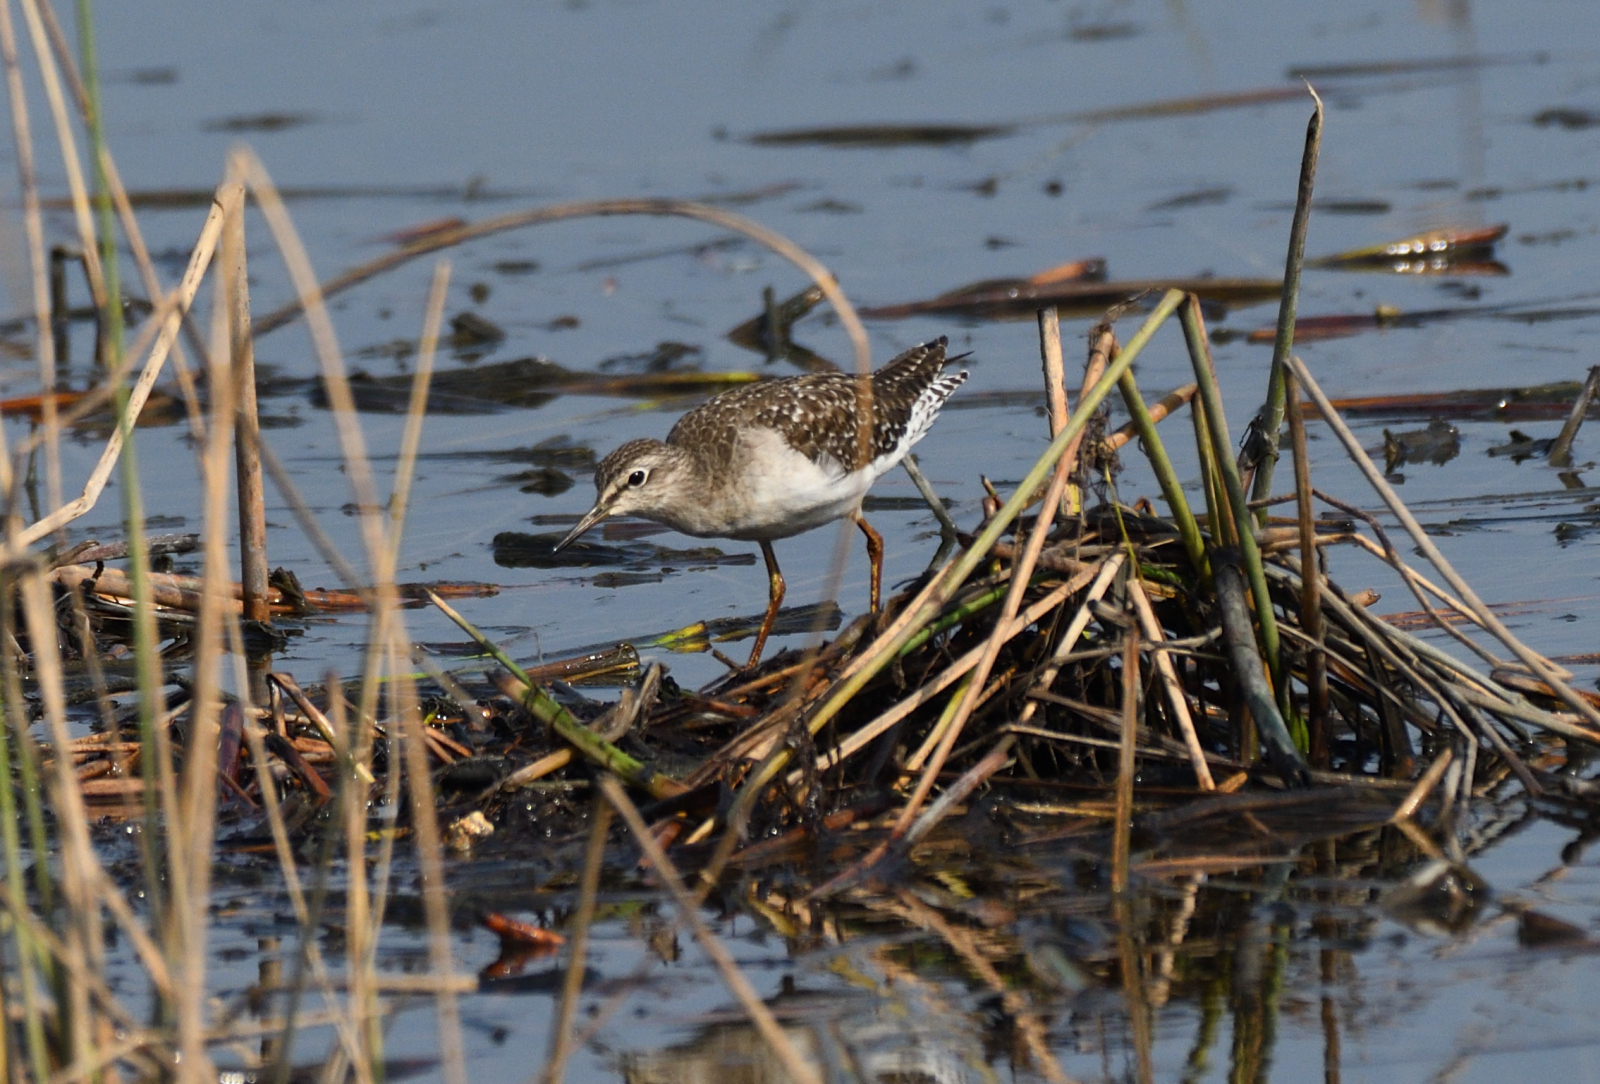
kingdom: Animalia
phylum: Chordata
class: Aves
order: Charadriiformes
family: Scolopacidae
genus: Tringa
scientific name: Tringa glareola
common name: Wood sandpiper
